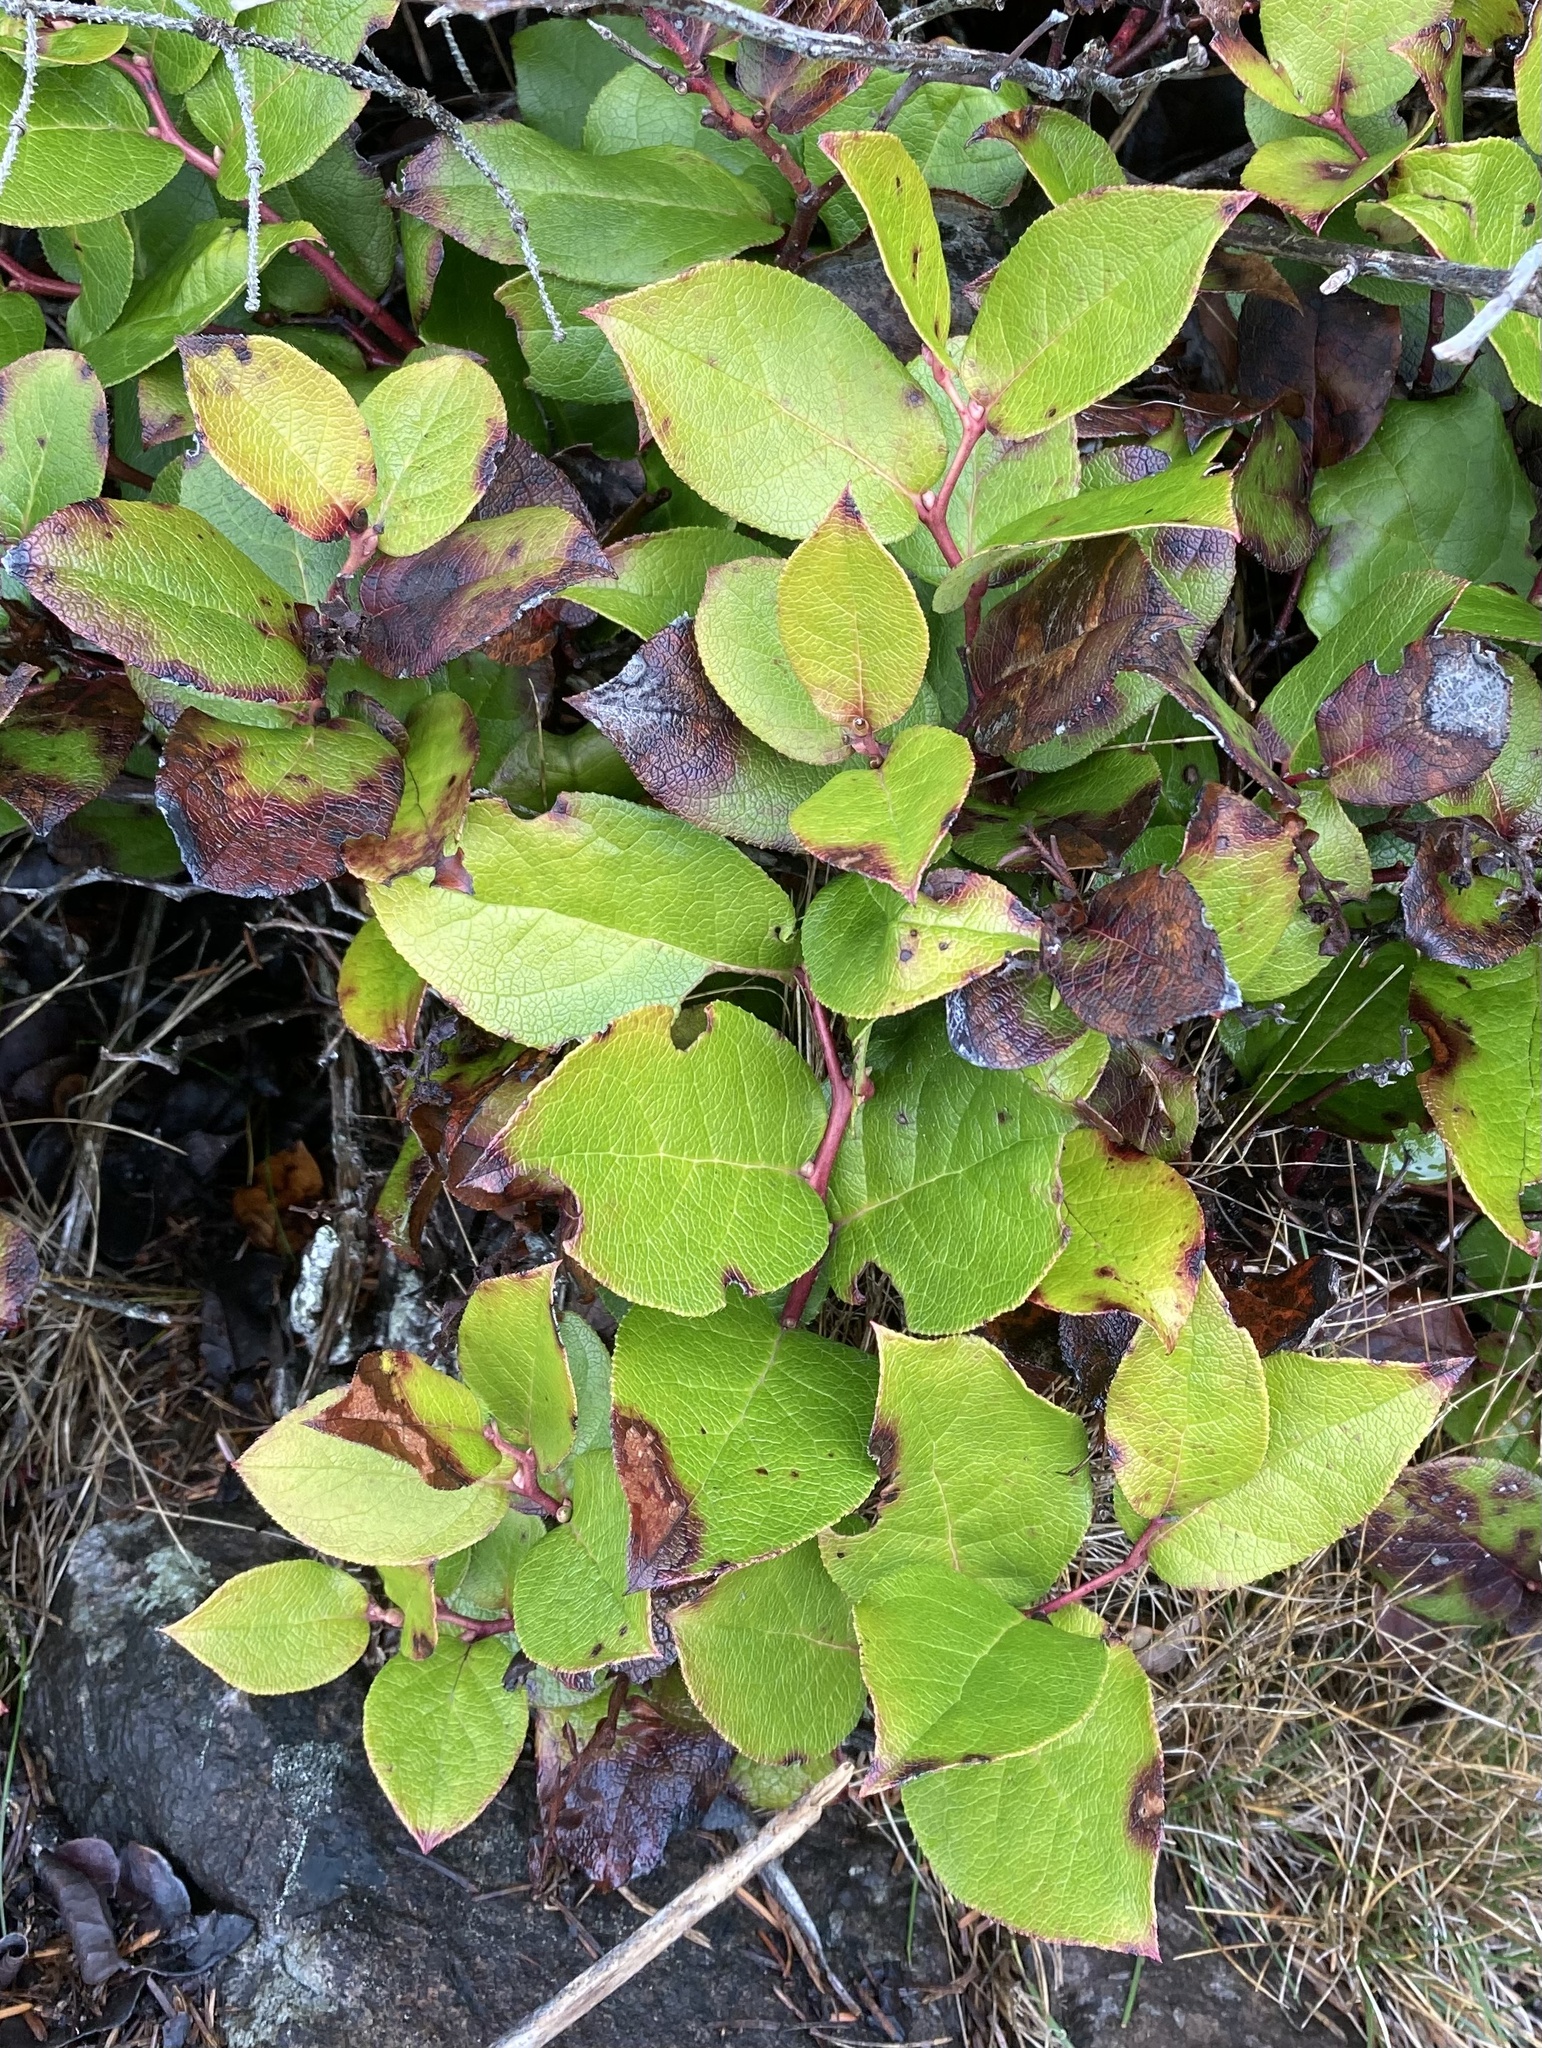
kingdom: Plantae
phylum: Tracheophyta
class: Magnoliopsida
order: Ericales
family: Ericaceae
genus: Gaultheria
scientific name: Gaultheria shallon
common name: Shallon
